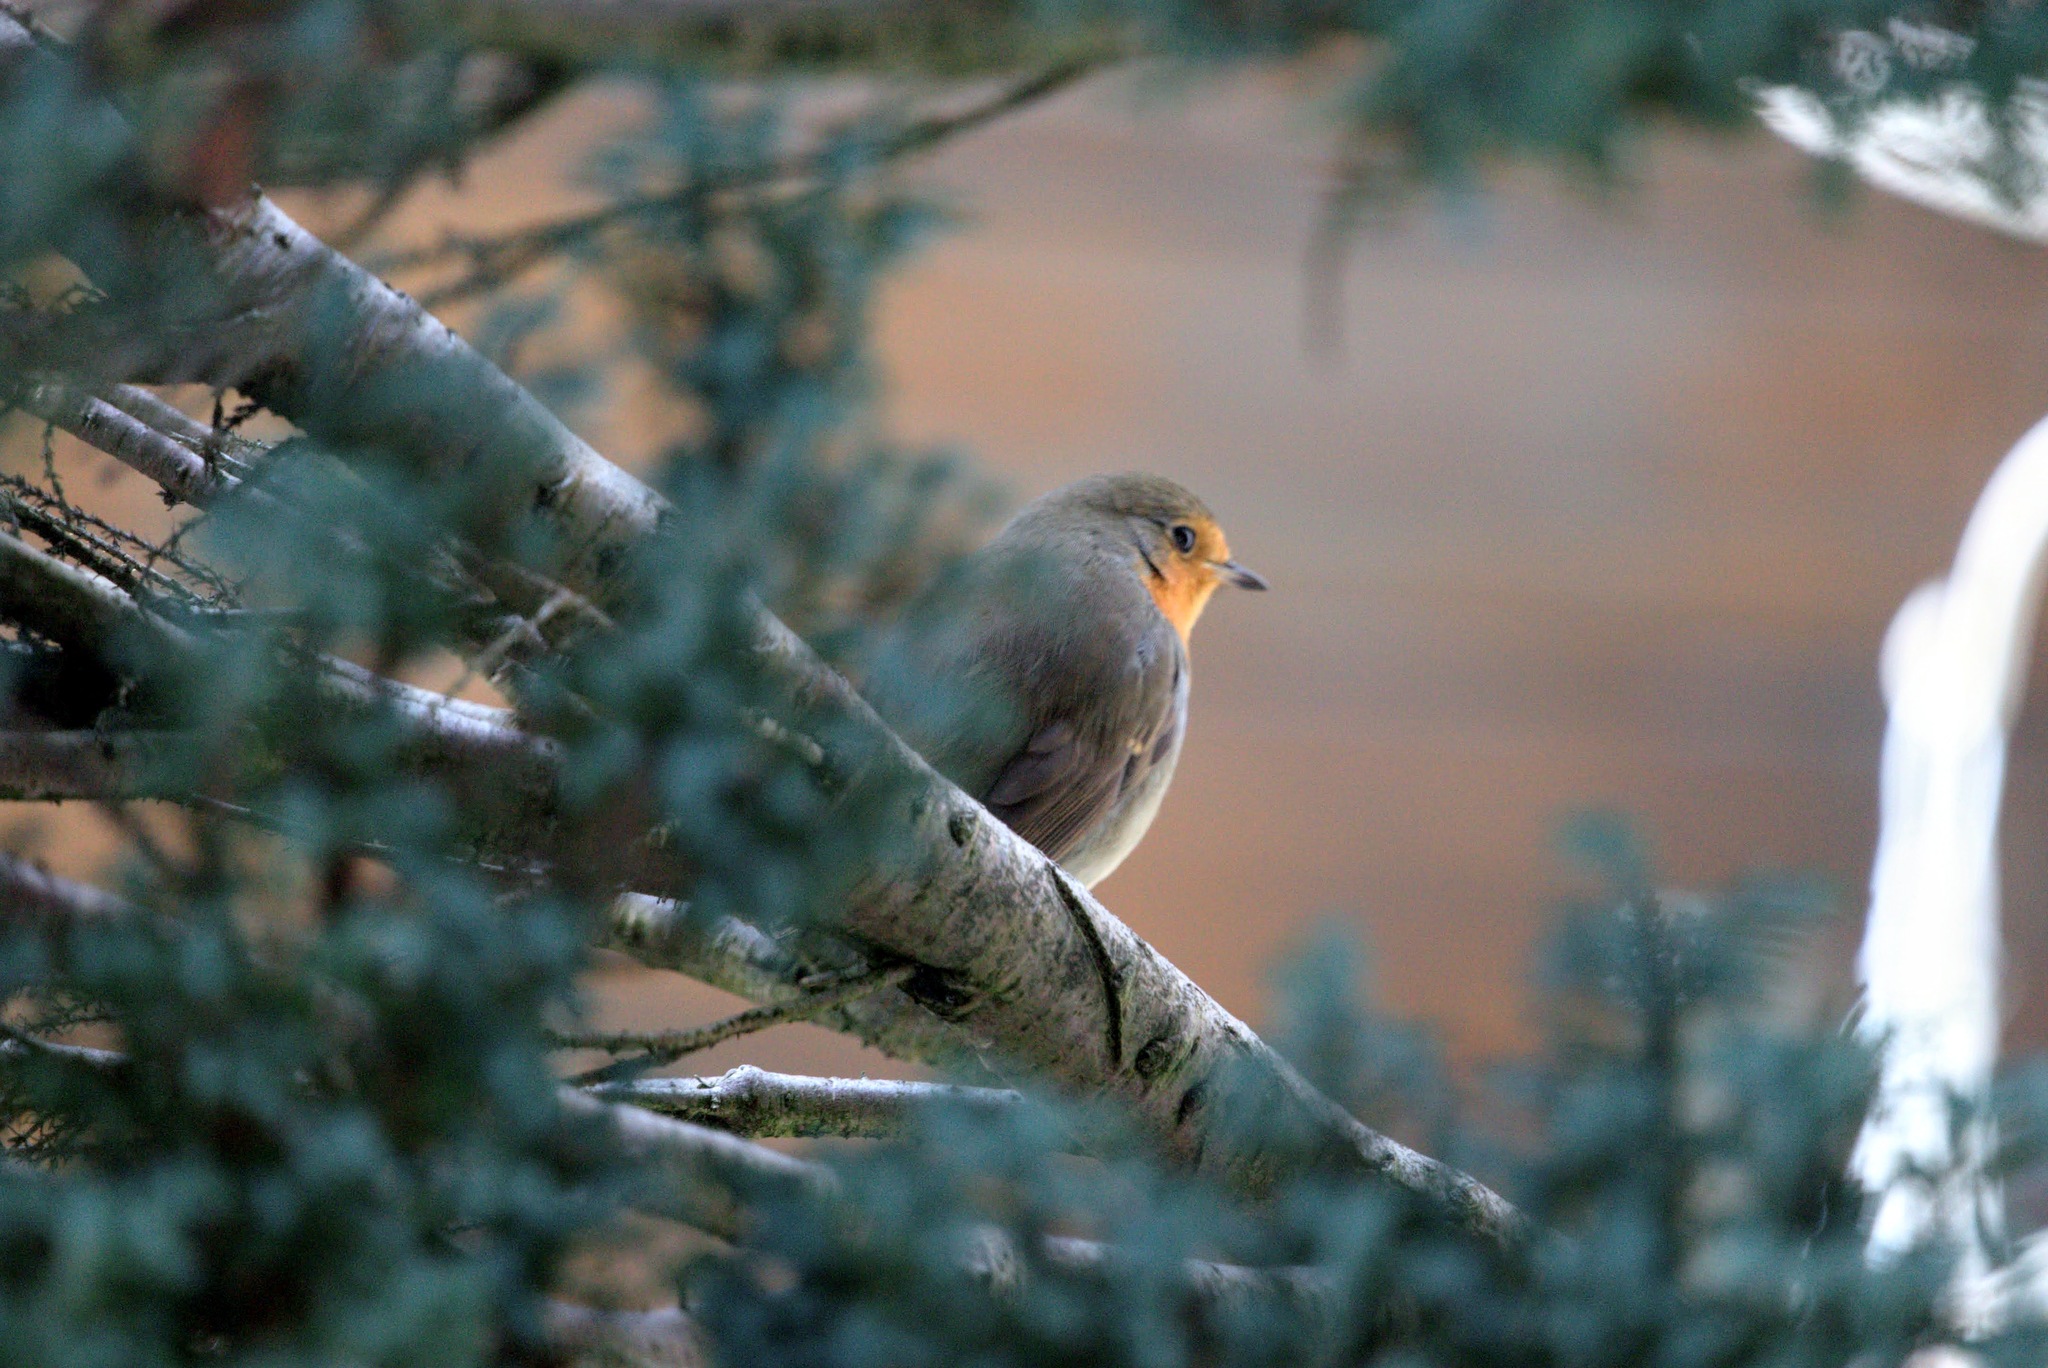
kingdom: Animalia
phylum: Chordata
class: Aves
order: Passeriformes
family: Muscicapidae
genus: Erithacus
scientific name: Erithacus rubecula
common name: European robin
